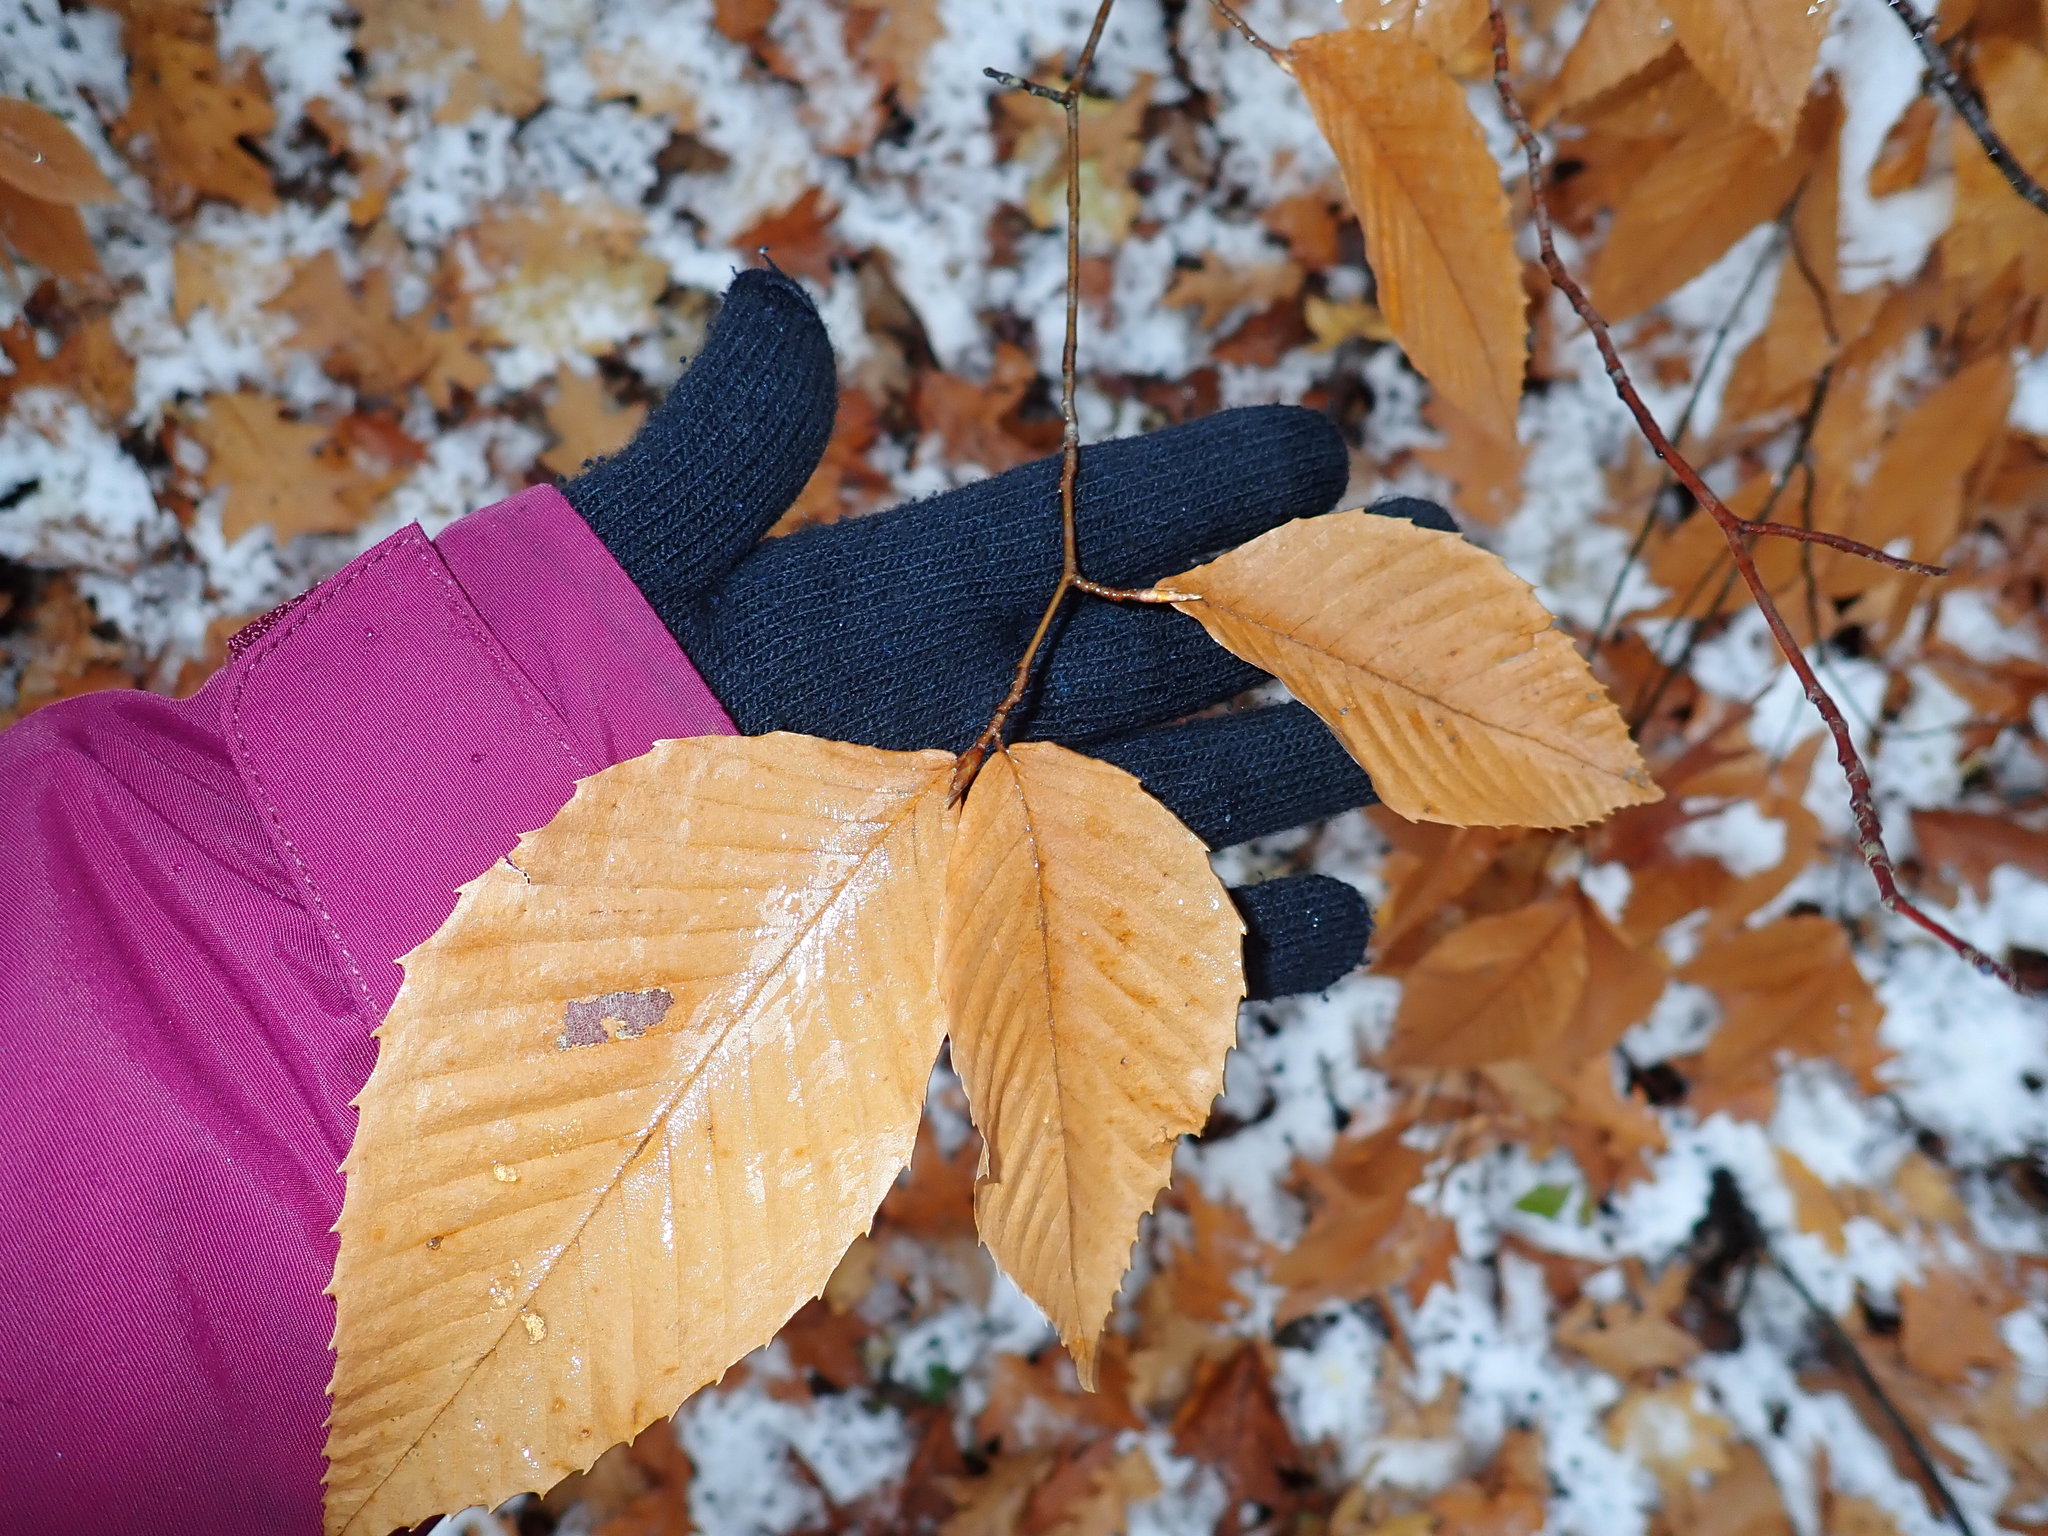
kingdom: Plantae
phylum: Tracheophyta
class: Magnoliopsida
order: Fagales
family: Fagaceae
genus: Fagus
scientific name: Fagus grandifolia
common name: American beech
